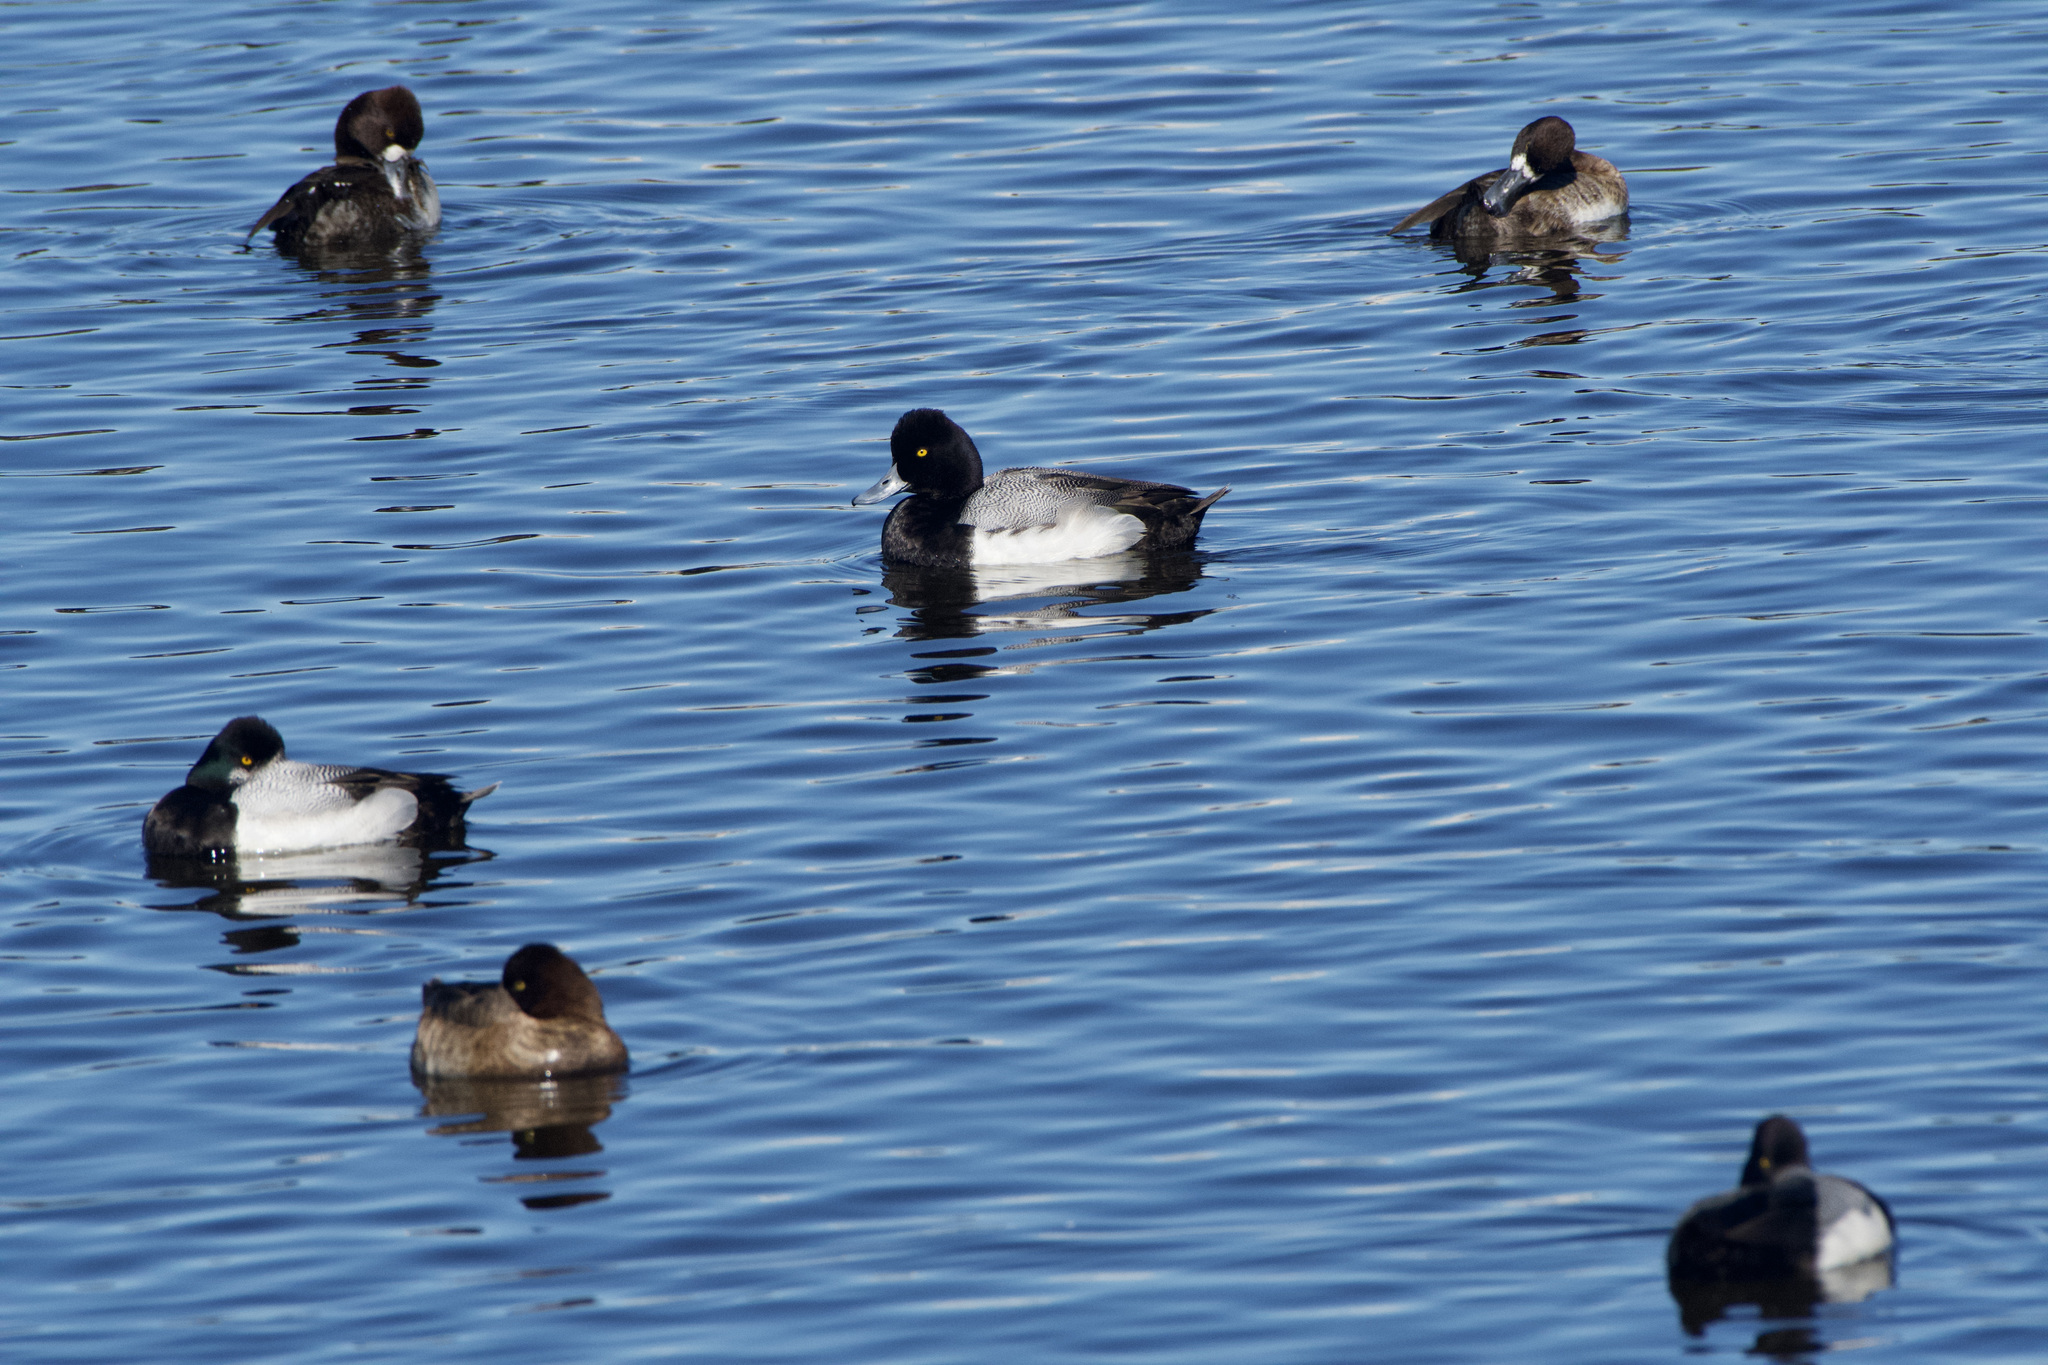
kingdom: Animalia
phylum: Chordata
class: Aves
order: Anseriformes
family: Anatidae
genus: Aythya
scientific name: Aythya affinis
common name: Lesser scaup
